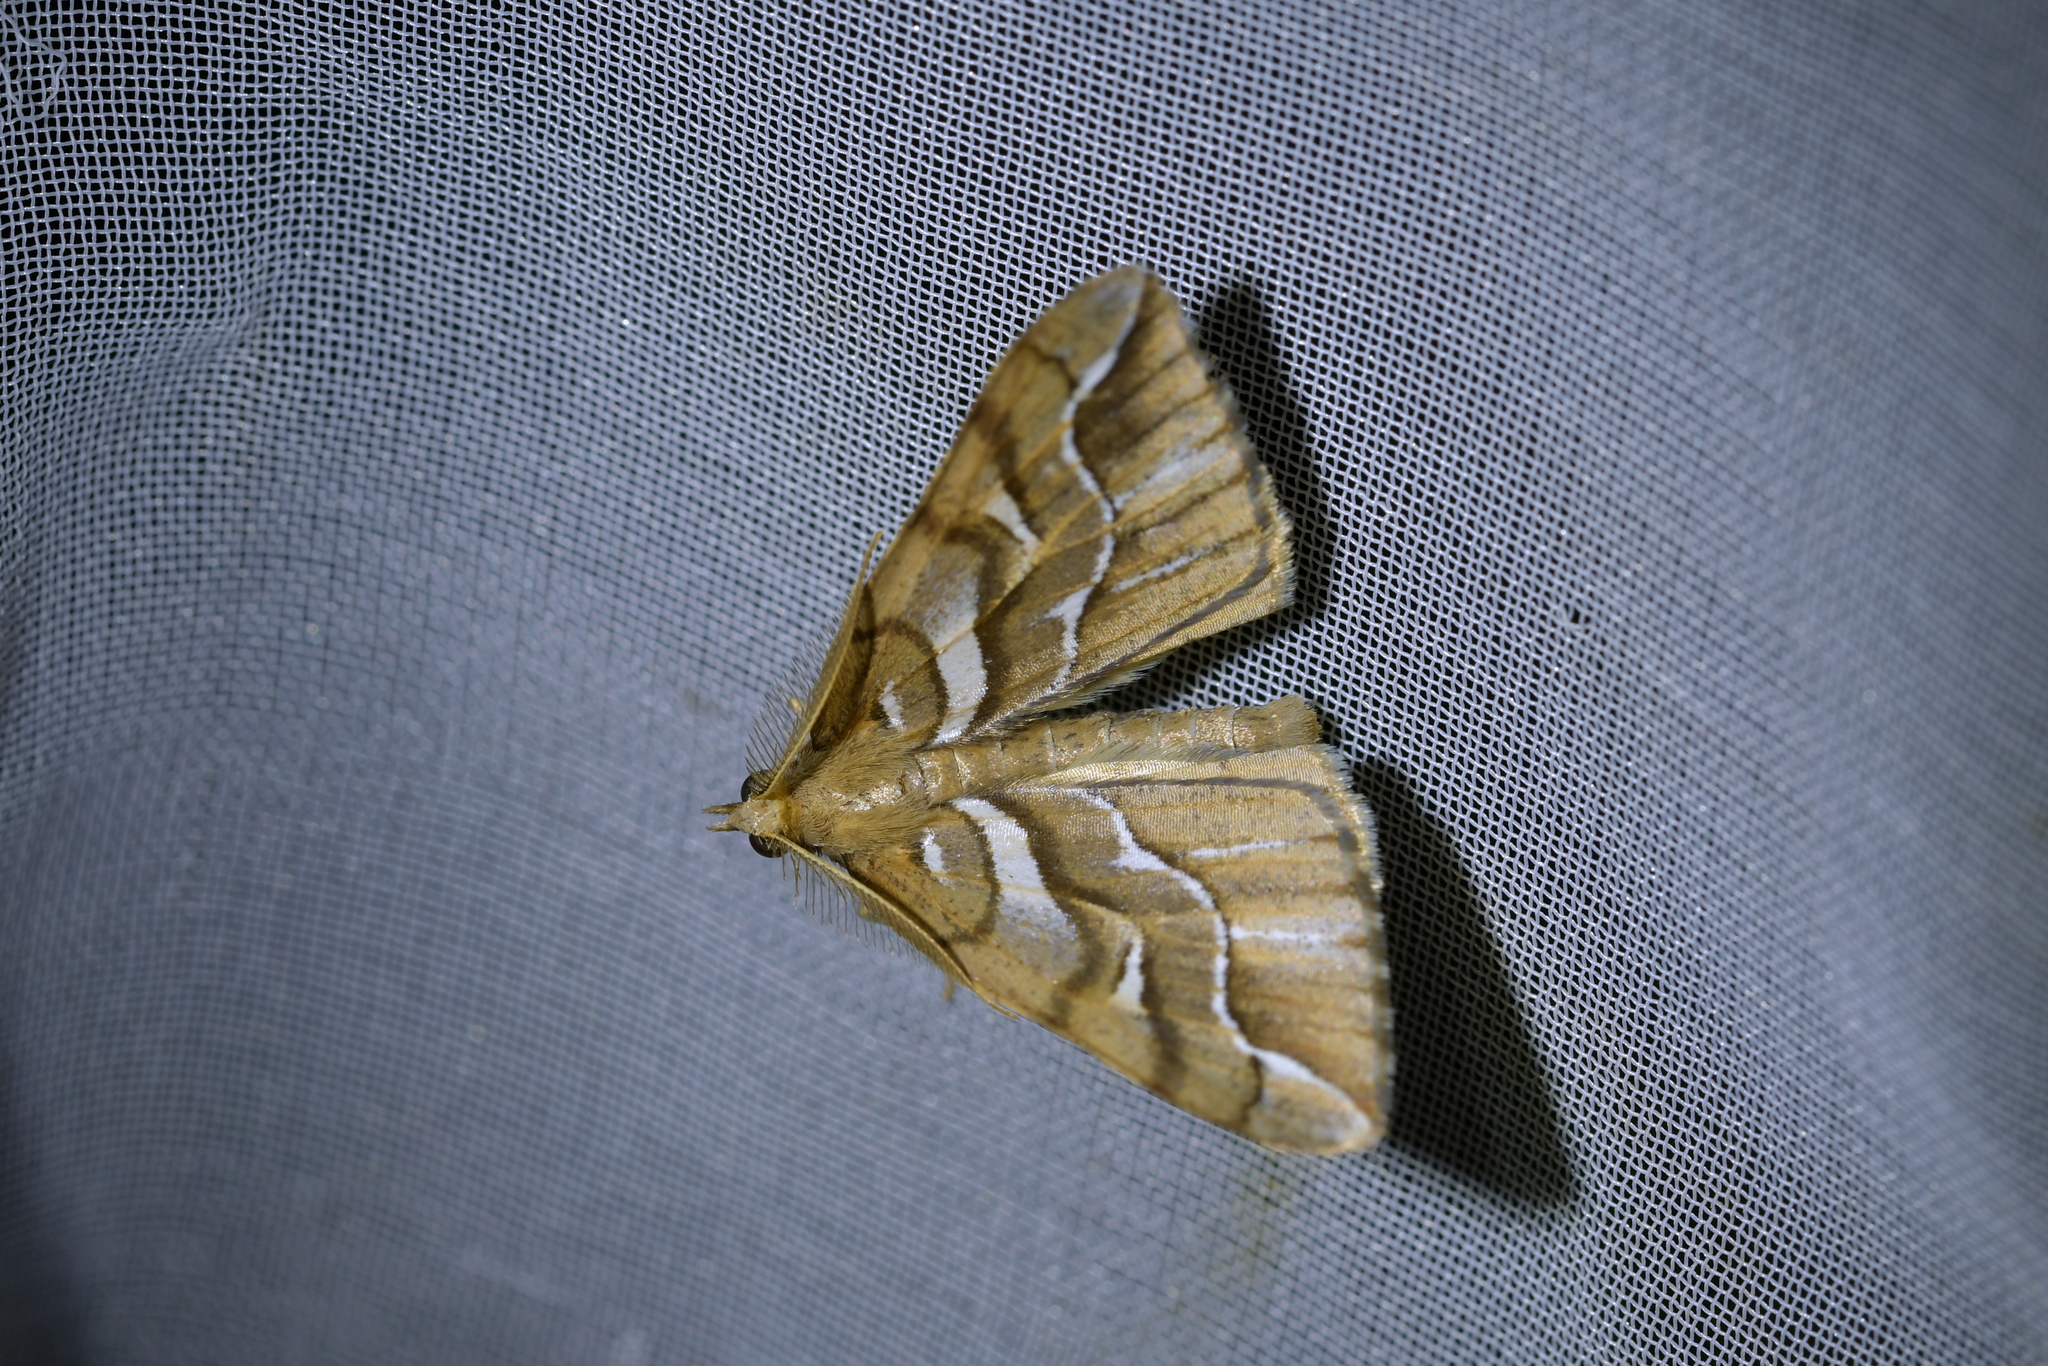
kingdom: Animalia
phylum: Arthropoda
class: Insecta
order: Lepidoptera
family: Geometridae
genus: Chalastra
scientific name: Chalastra aristarcha
